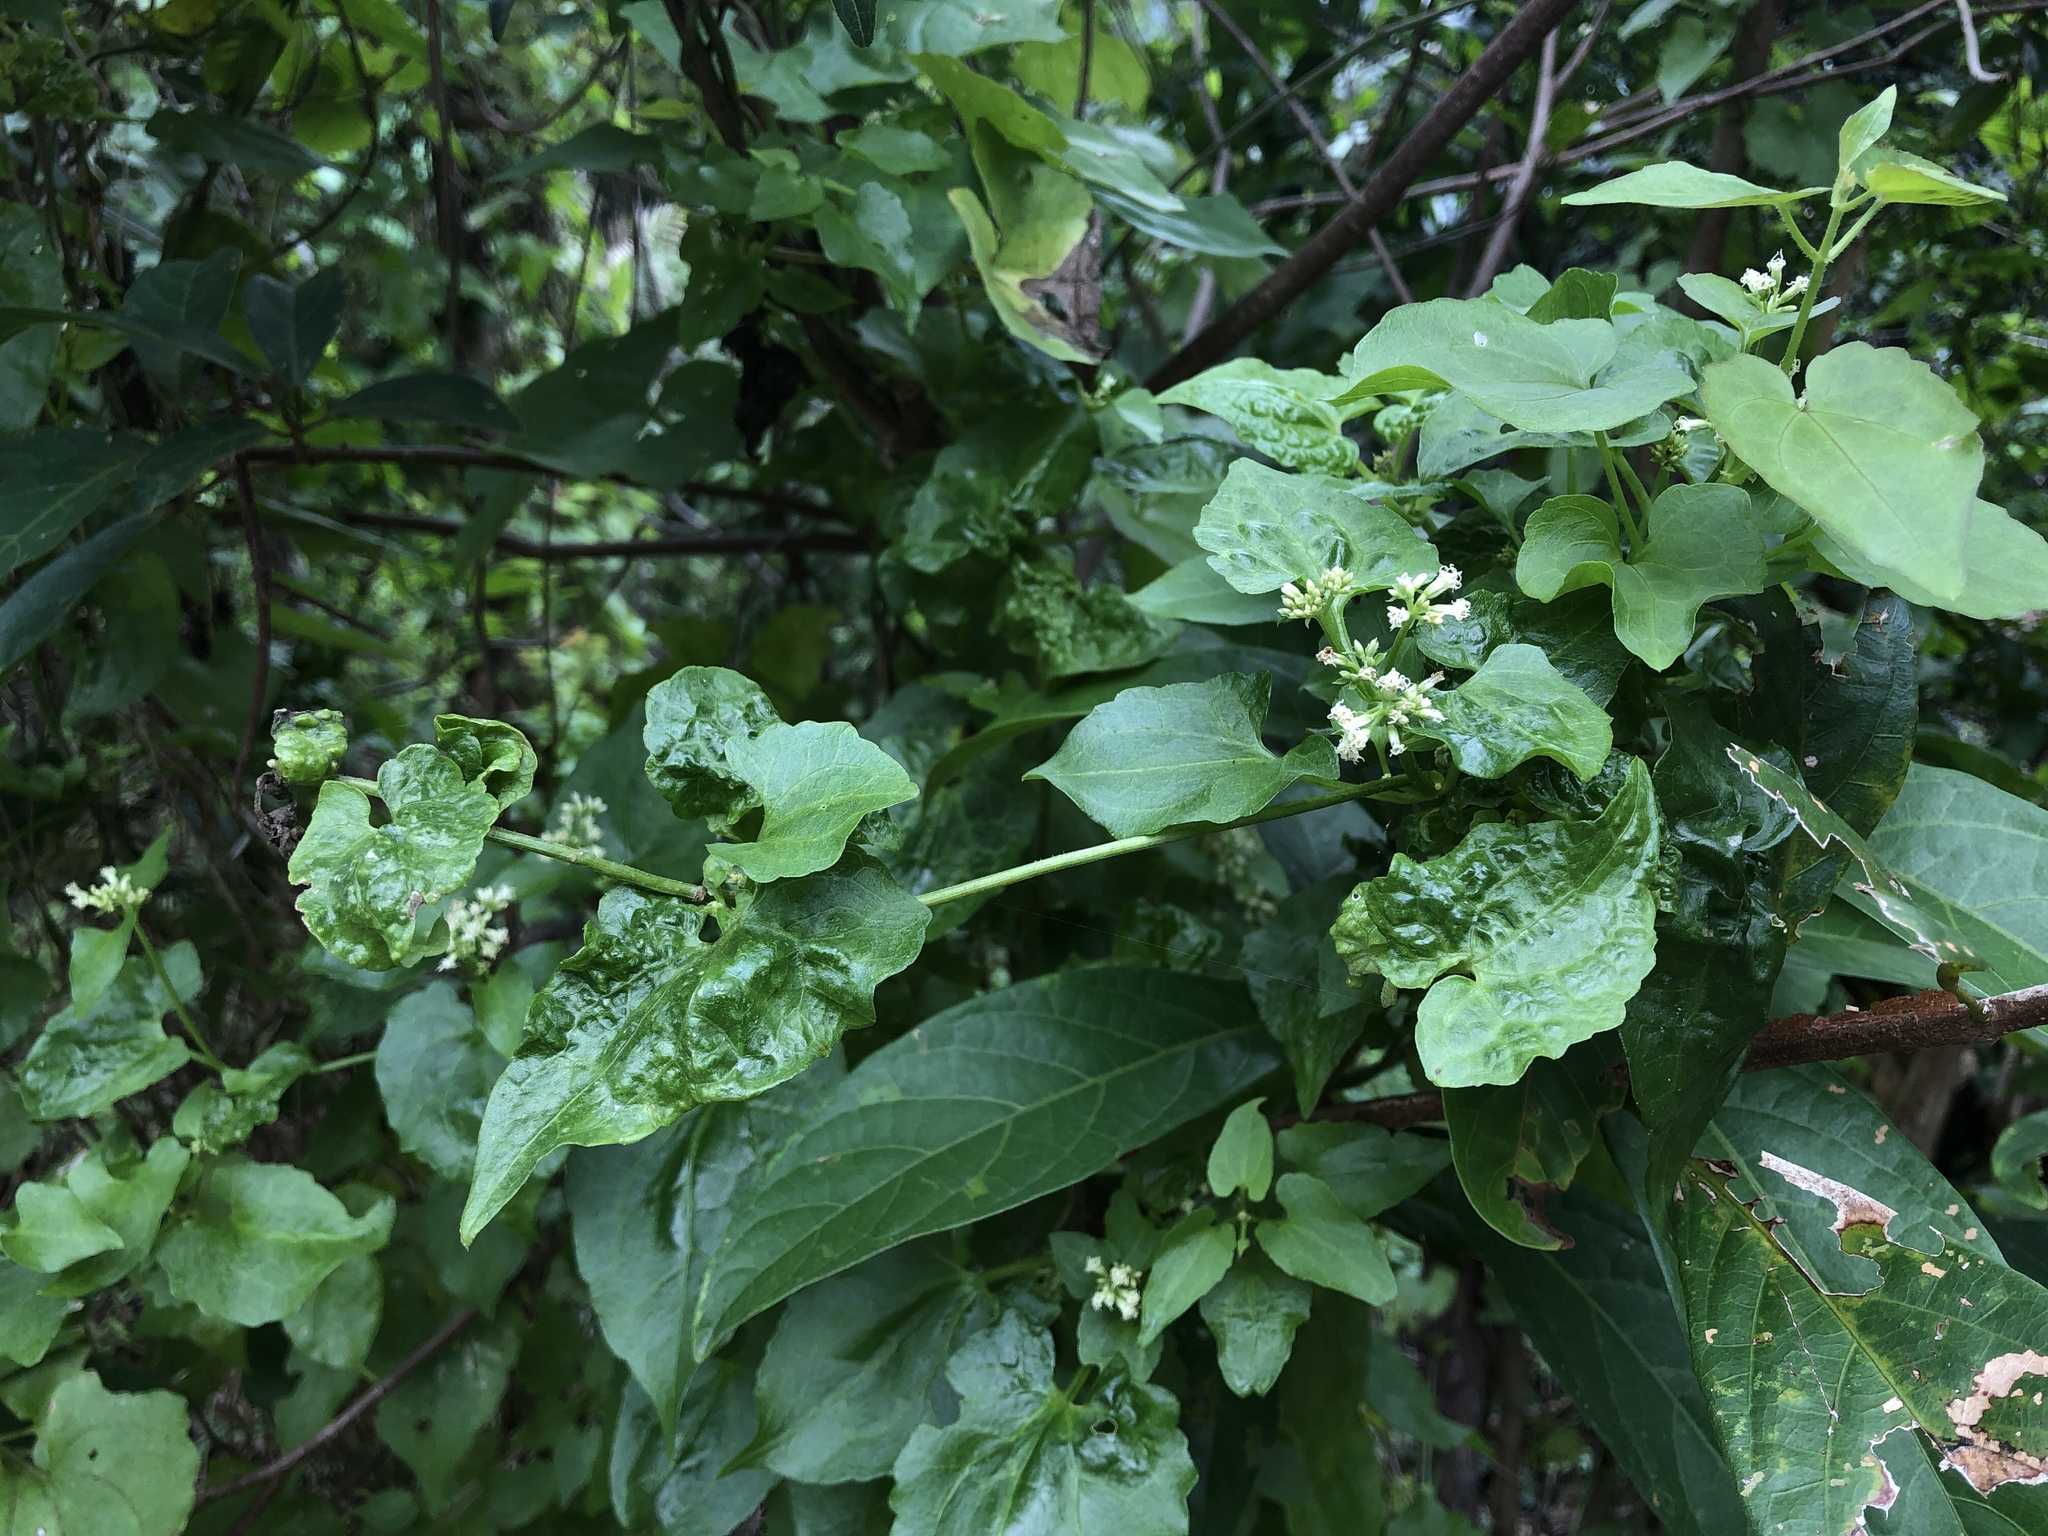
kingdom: Plantae
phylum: Tracheophyta
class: Magnoliopsida
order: Asterales
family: Asteraceae
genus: Mikania
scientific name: Mikania micrantha
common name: Mile-a-minute
